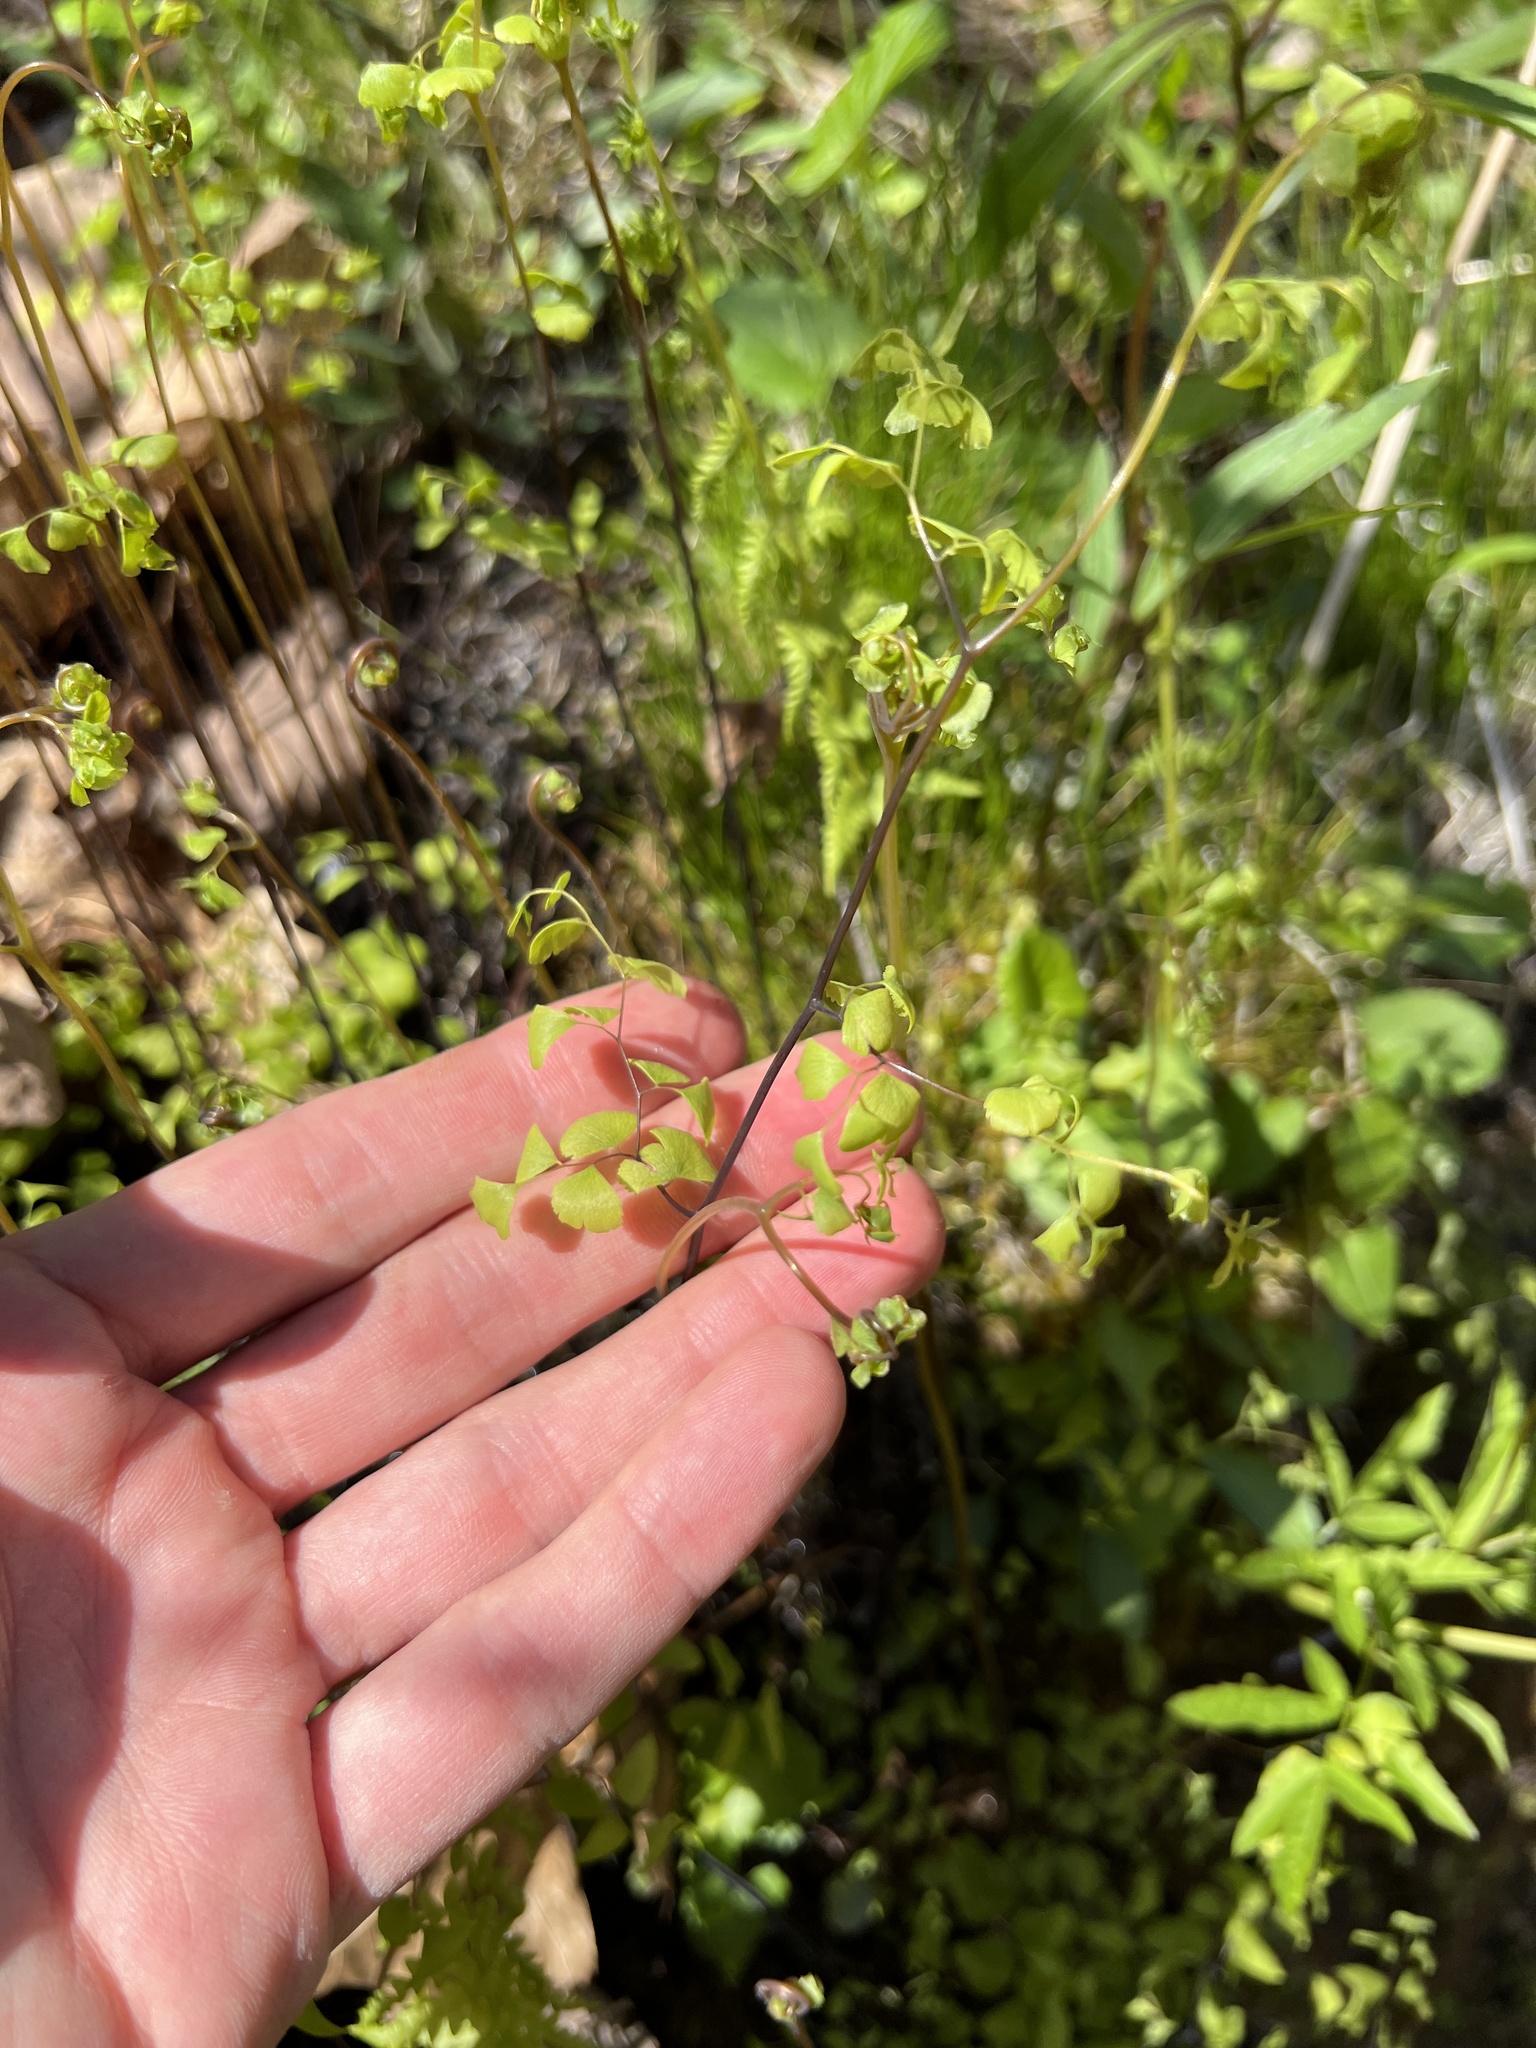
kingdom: Plantae
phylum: Tracheophyta
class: Polypodiopsida
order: Polypodiales
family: Pteridaceae
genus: Adiantum
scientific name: Adiantum capillus-veneris
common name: Maidenhair fern
